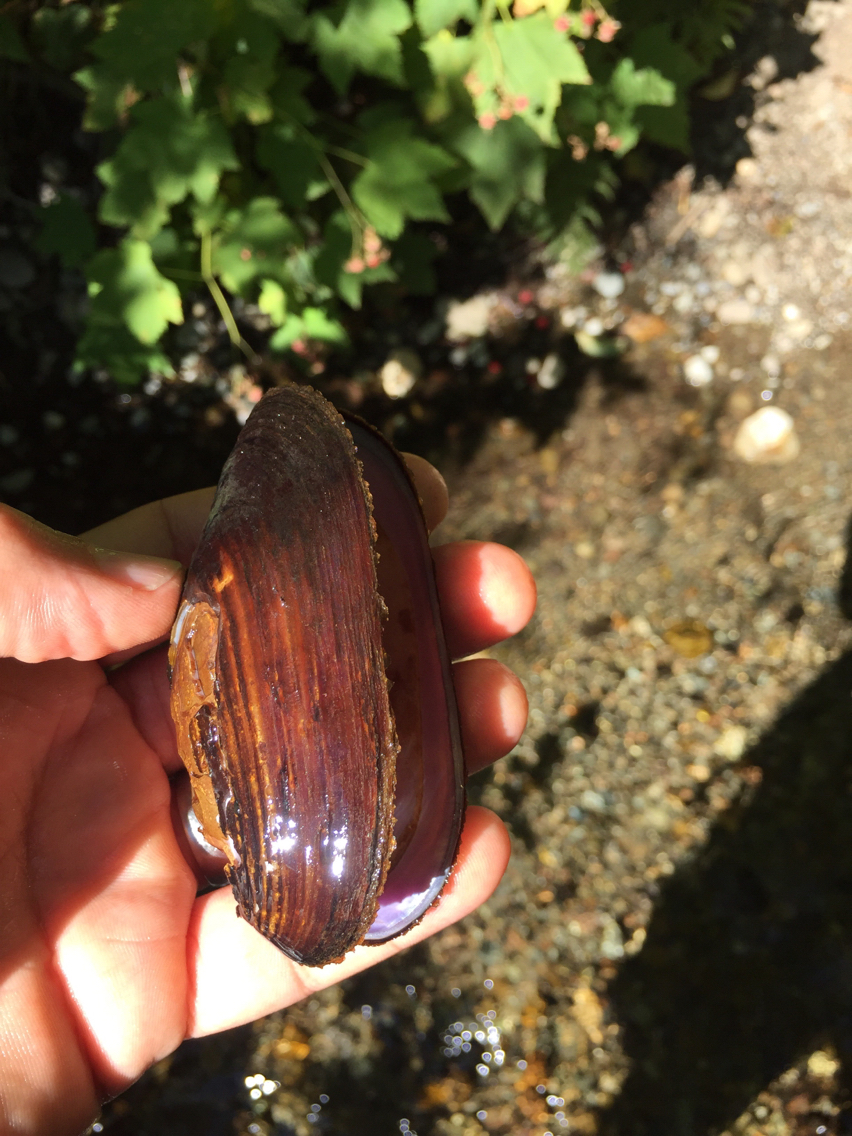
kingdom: Animalia
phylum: Mollusca
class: Bivalvia
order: Unionida
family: Margaritiferidae
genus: Margaritifera
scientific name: Margaritifera falcata
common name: Western pearlshell
